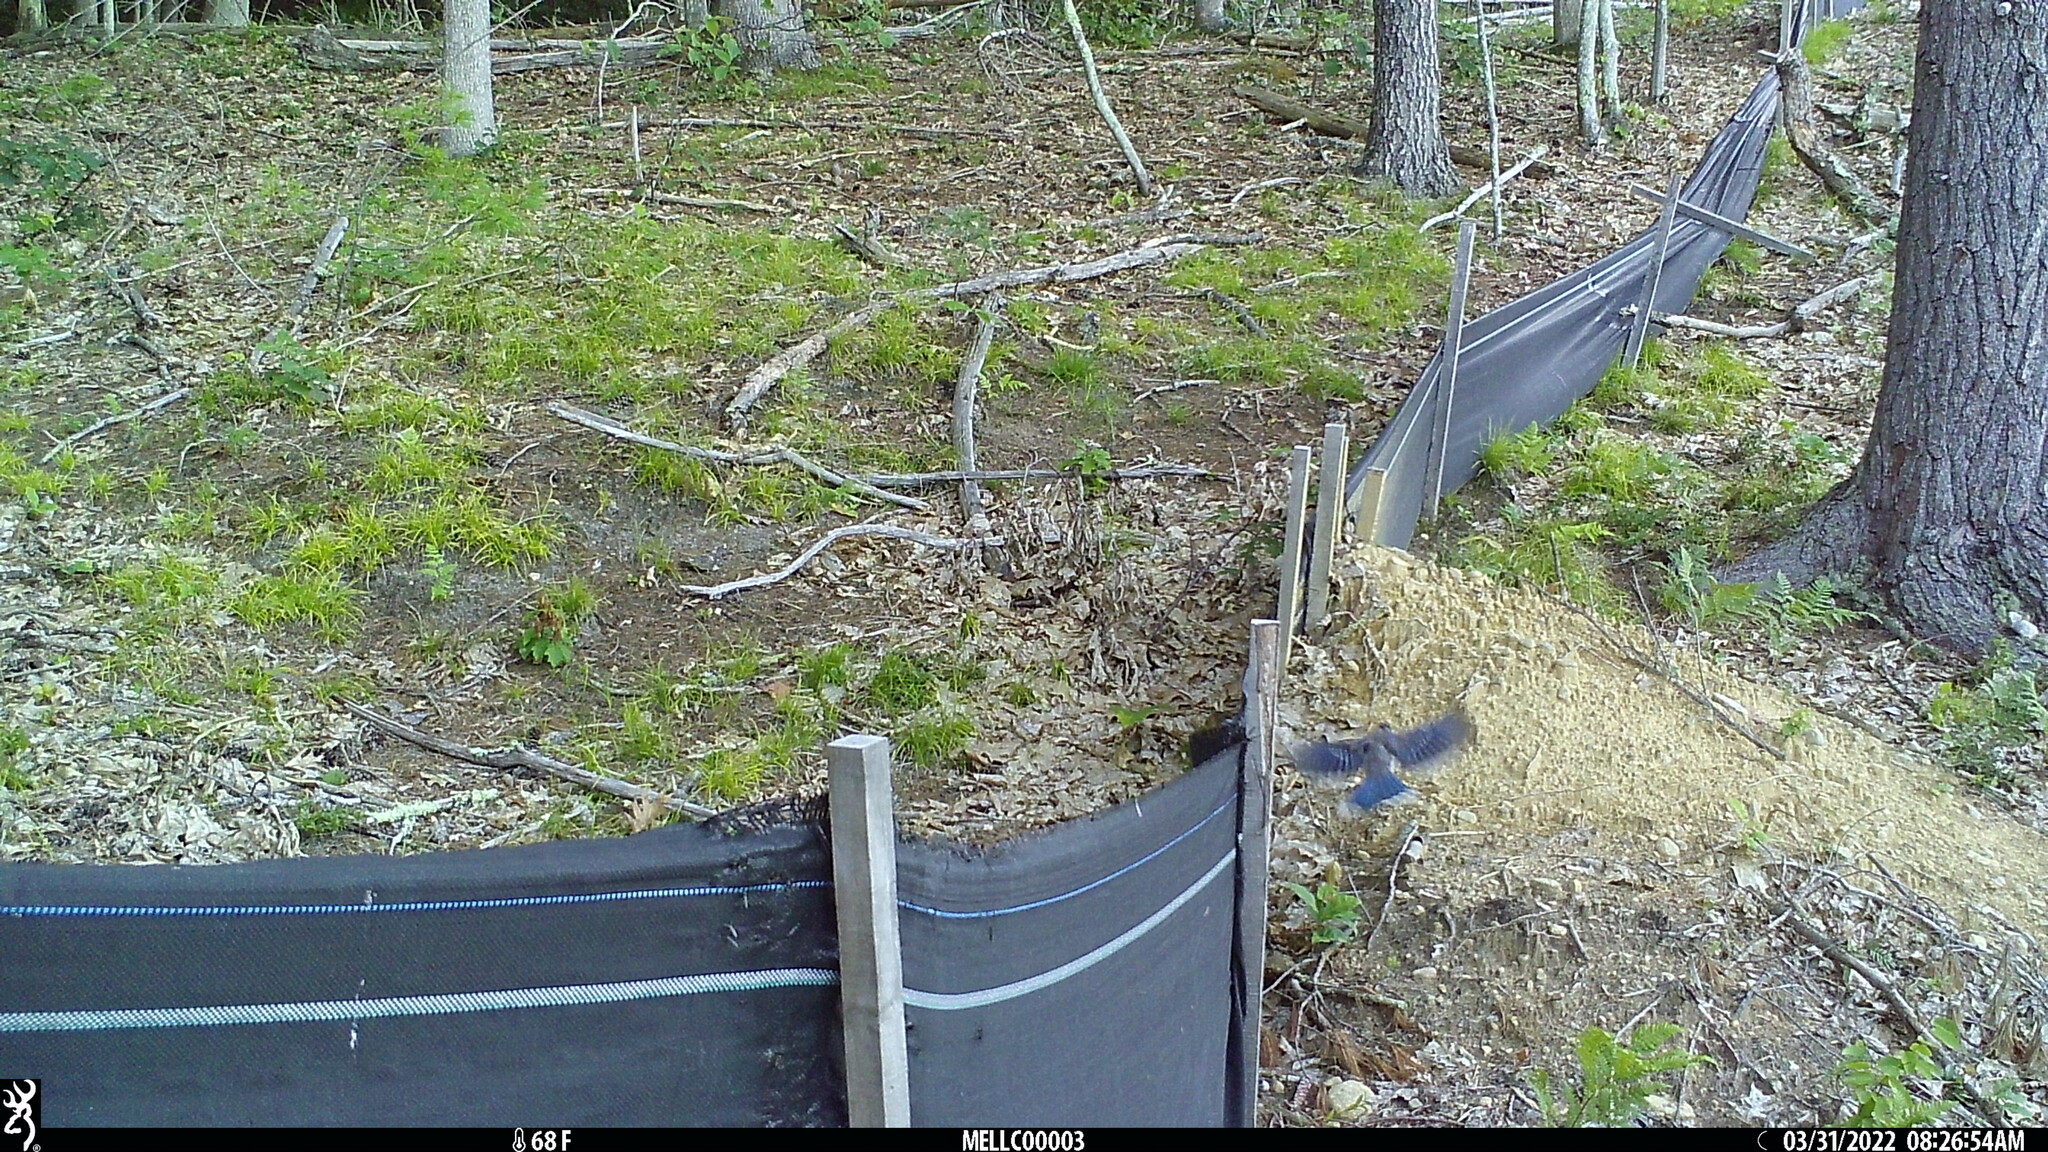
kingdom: Animalia
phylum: Chordata
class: Aves
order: Passeriformes
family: Corvidae
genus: Cyanocitta
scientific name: Cyanocitta cristata
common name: Blue jay
